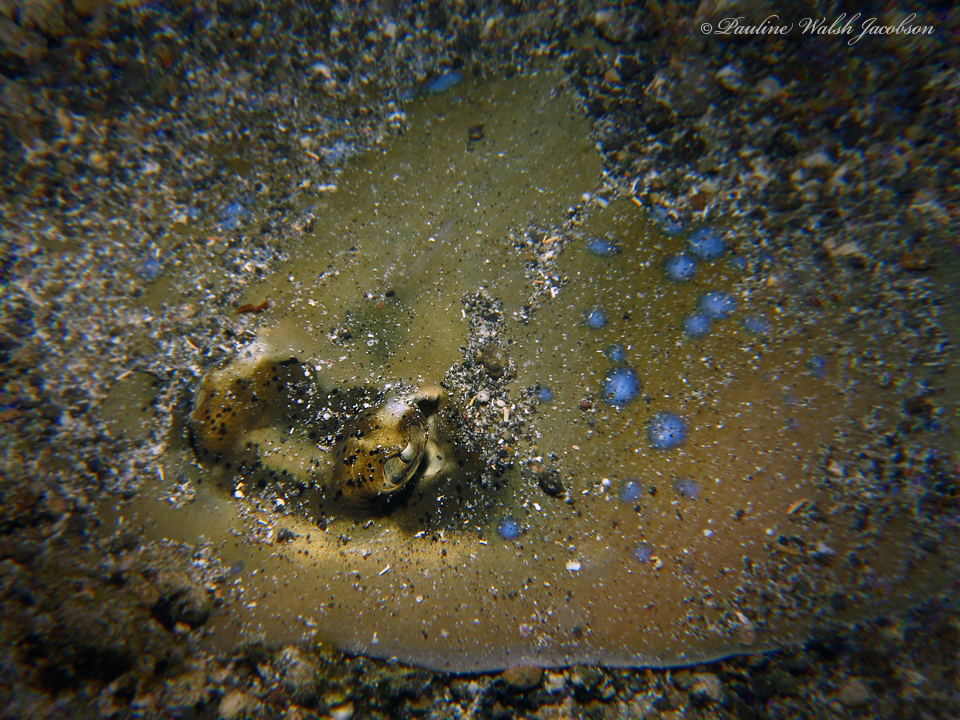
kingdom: Animalia
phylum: Chordata
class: Elasmobranchii
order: Myliobatiformes
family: Dasyatidae
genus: Neotrygon
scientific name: Neotrygon orientale
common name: Oriental bluespotted maskray
